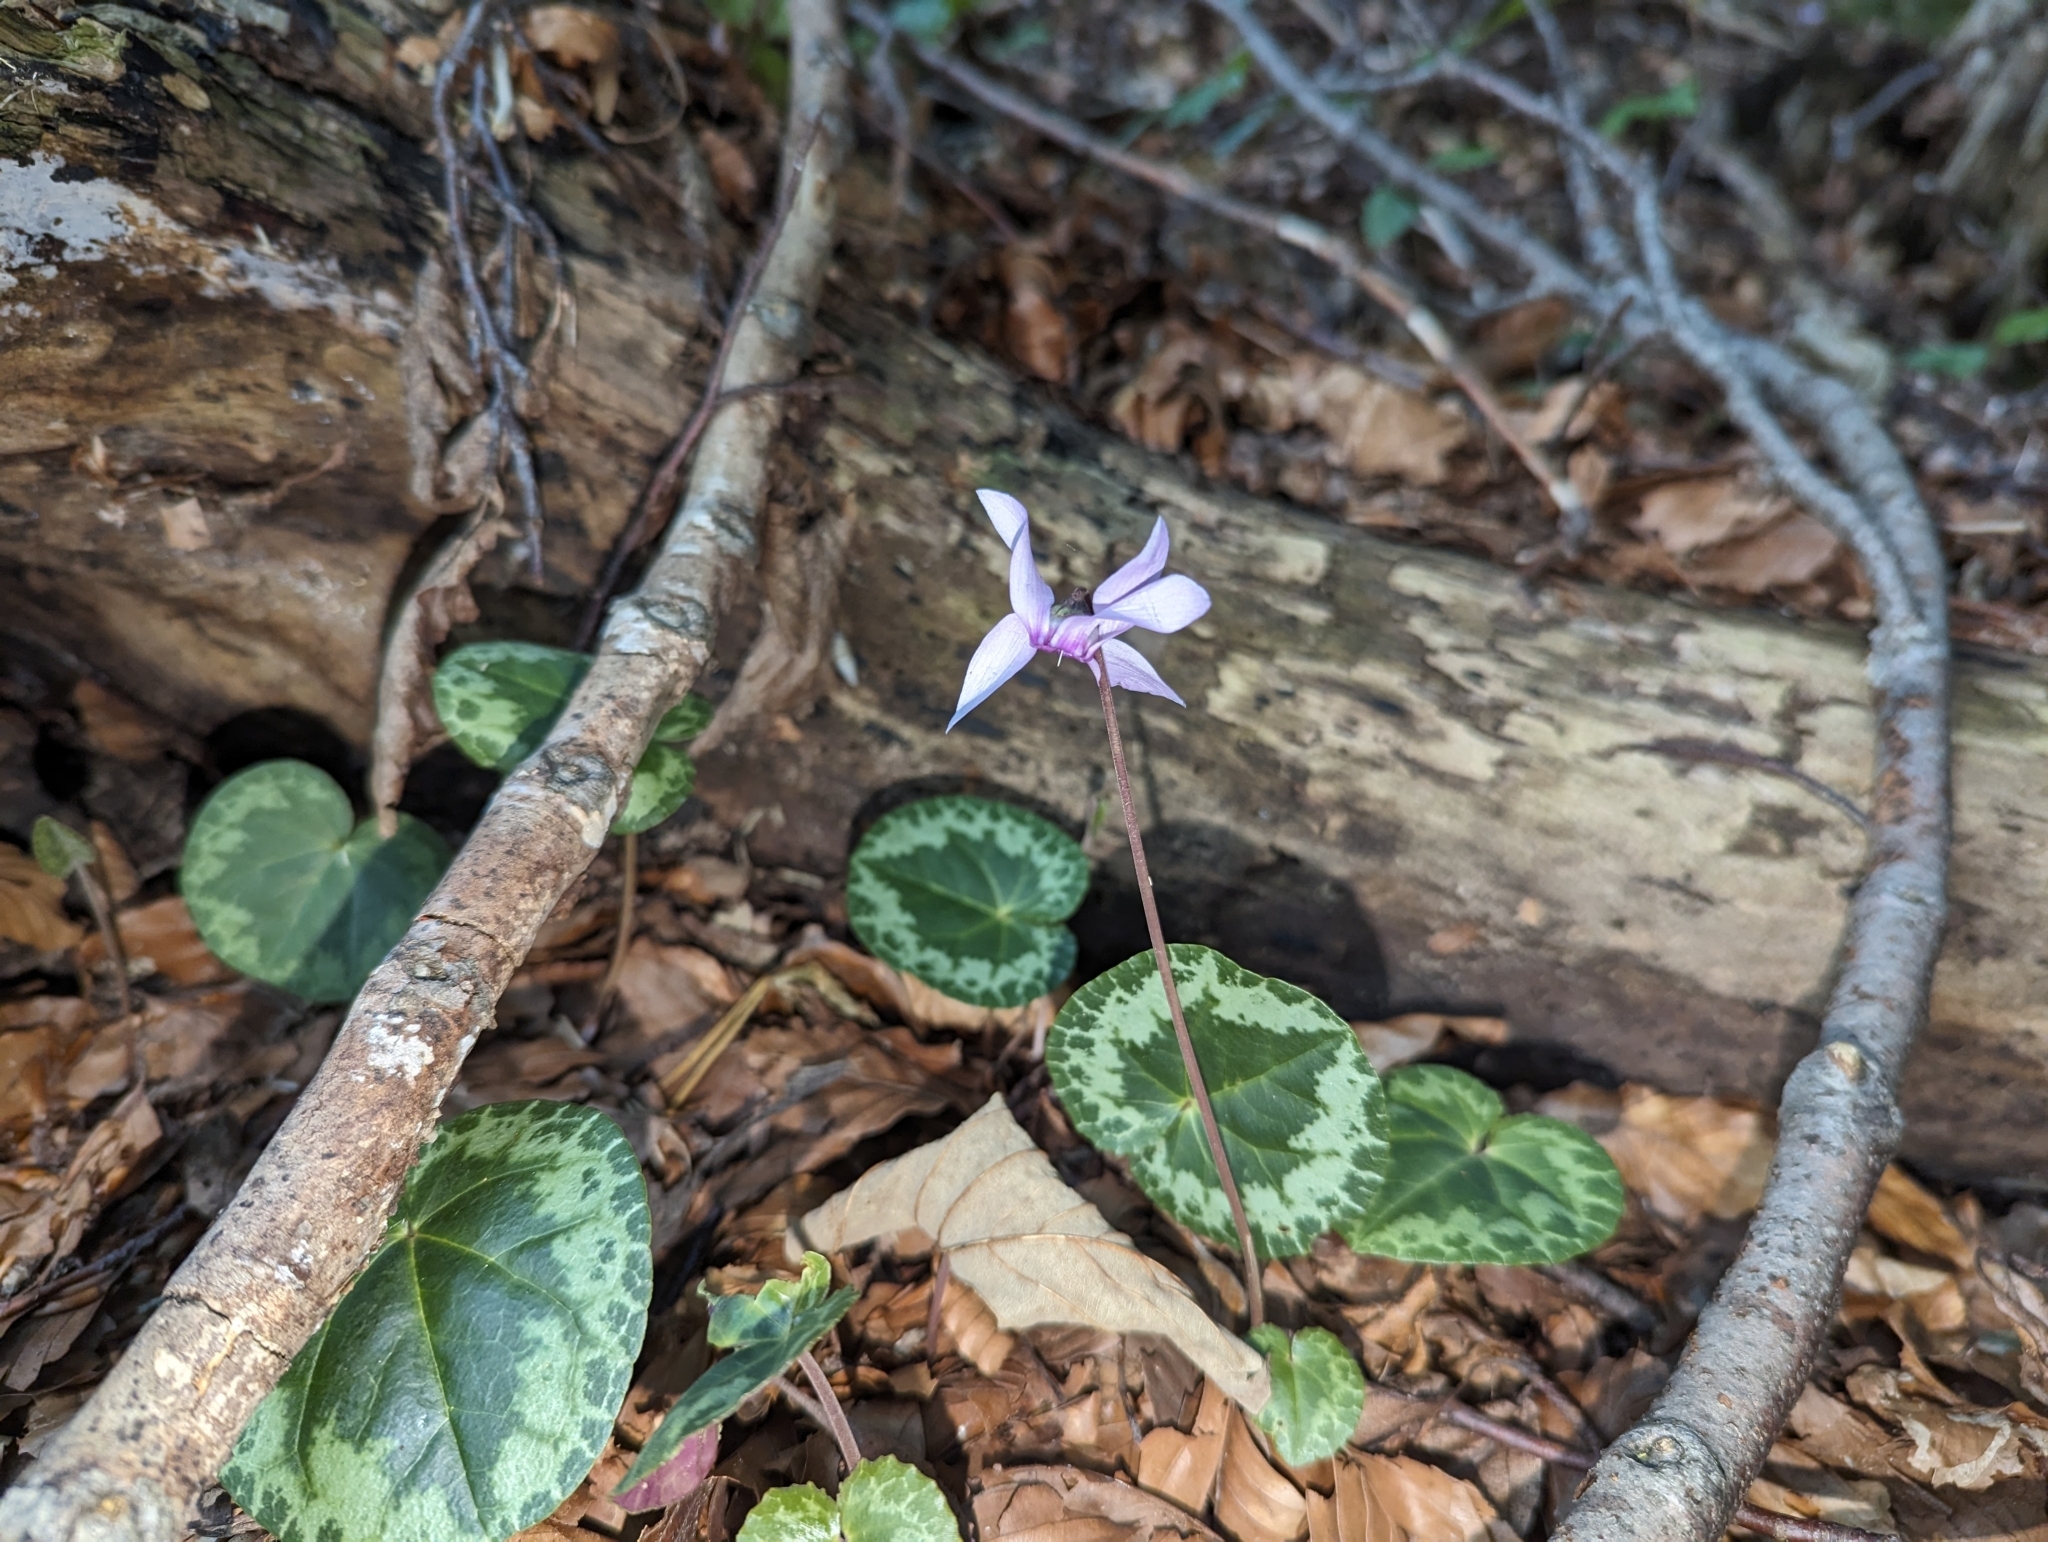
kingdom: Plantae
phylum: Tracheophyta
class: Magnoliopsida
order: Ericales
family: Primulaceae
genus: Cyclamen
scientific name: Cyclamen purpurascens
